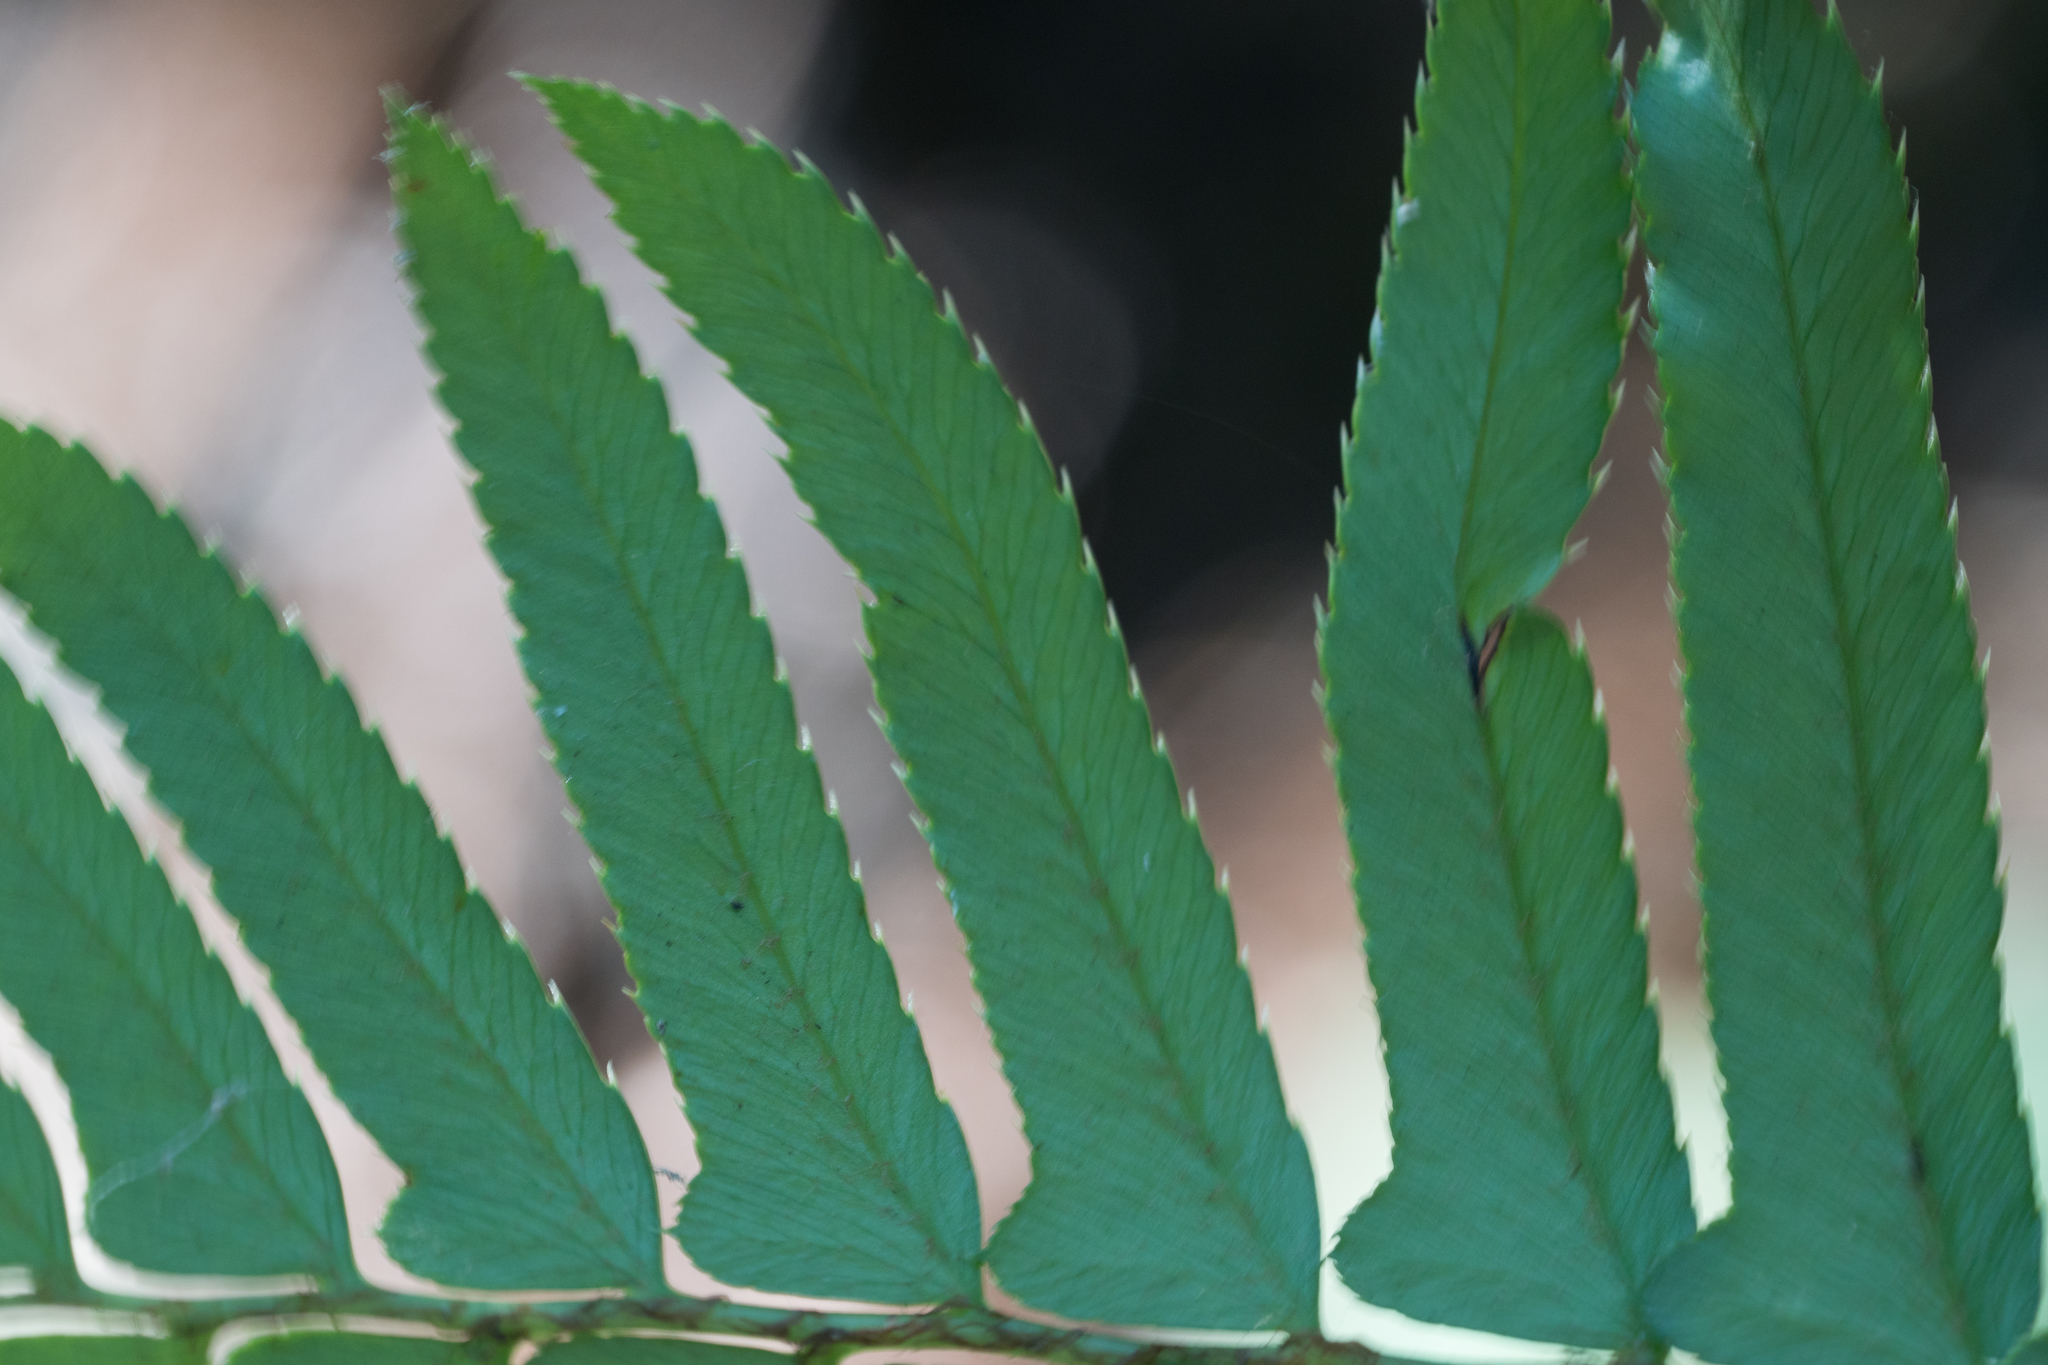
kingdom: Plantae
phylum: Tracheophyta
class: Polypodiopsida
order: Polypodiales
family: Dryopteridaceae
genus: Polystichum
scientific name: Polystichum munitum
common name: Western sword-fern
